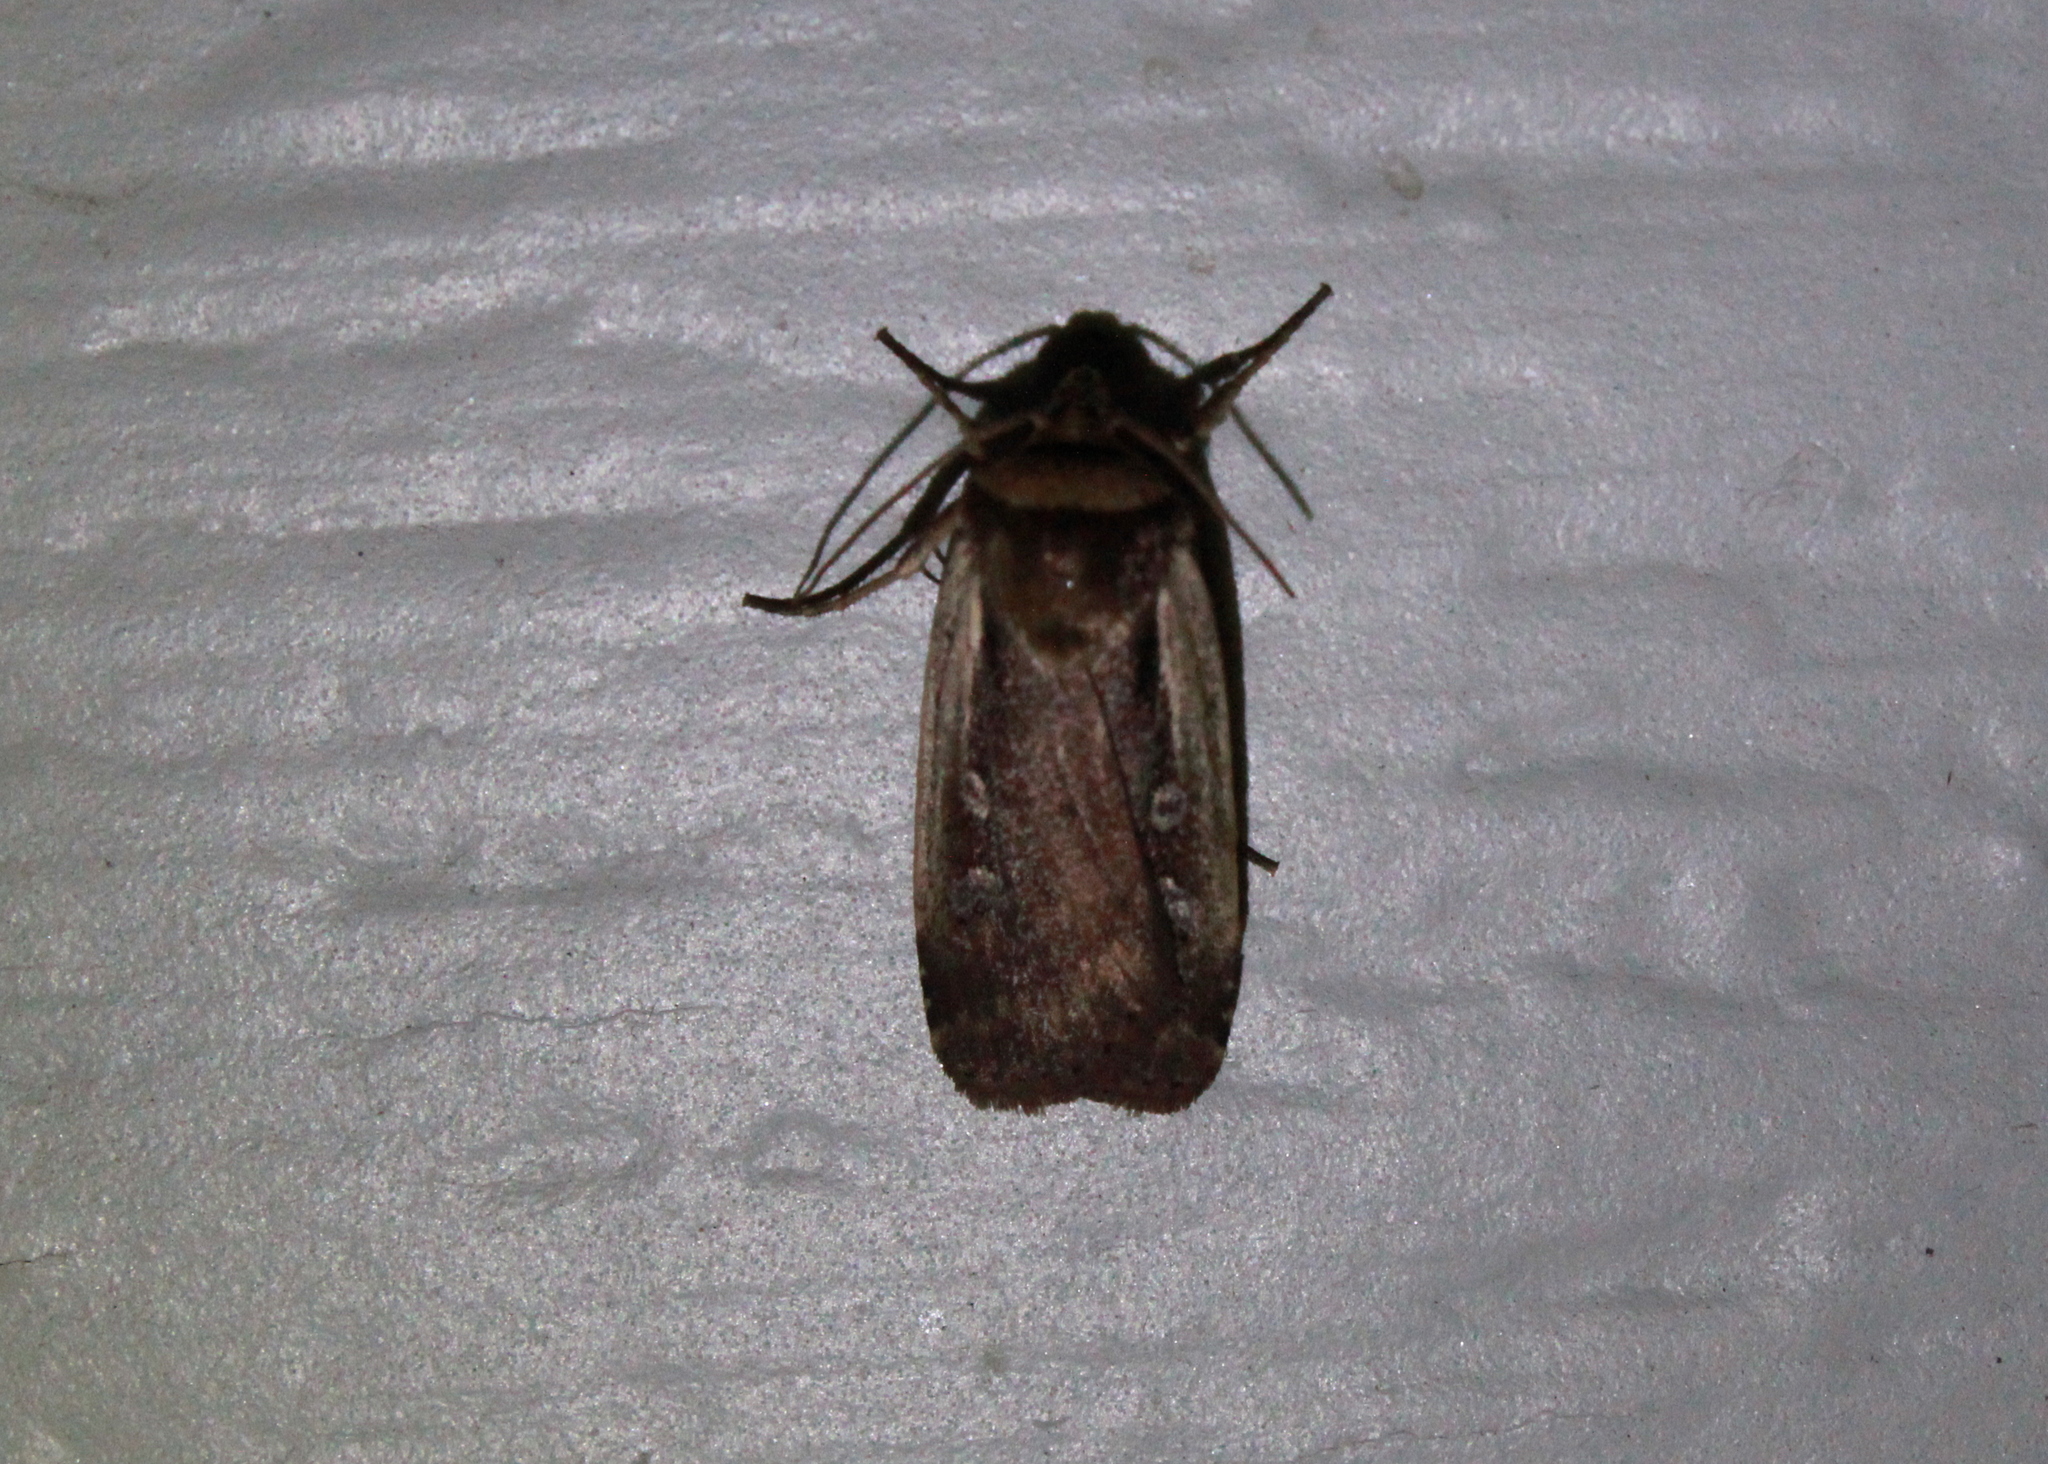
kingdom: Animalia
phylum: Arthropoda
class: Insecta
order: Lepidoptera
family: Noctuidae
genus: Ochropleura
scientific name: Ochropleura implecta
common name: Flame-shouldered dart
